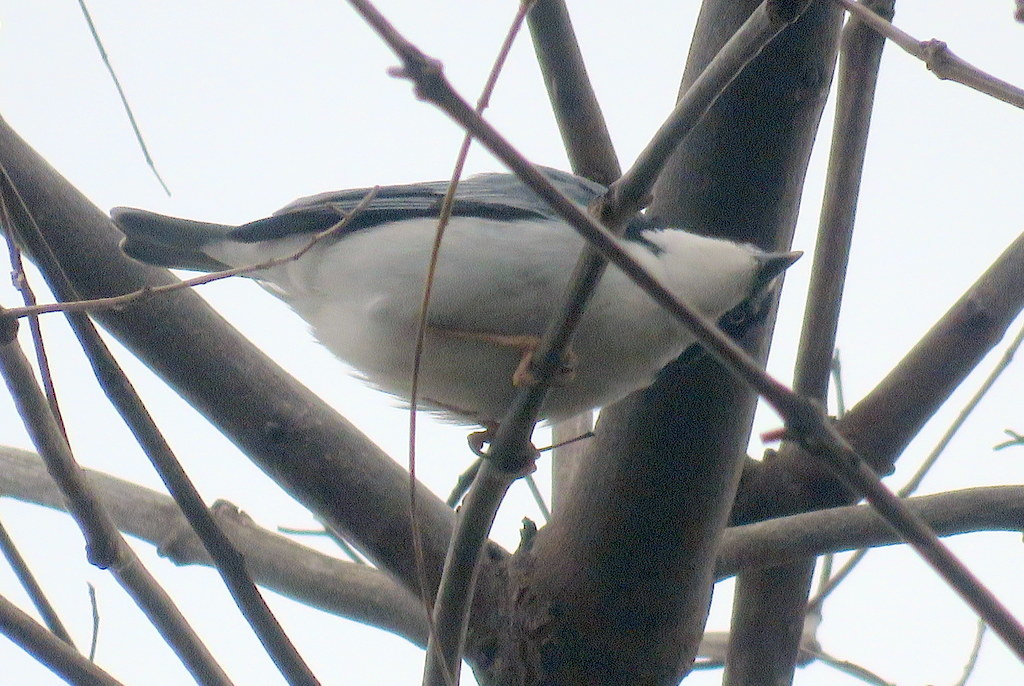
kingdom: Animalia
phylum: Chordata
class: Aves
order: Passeriformes
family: Thraupidae
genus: Nemosia
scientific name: Nemosia pileata
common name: Hooded tanager
